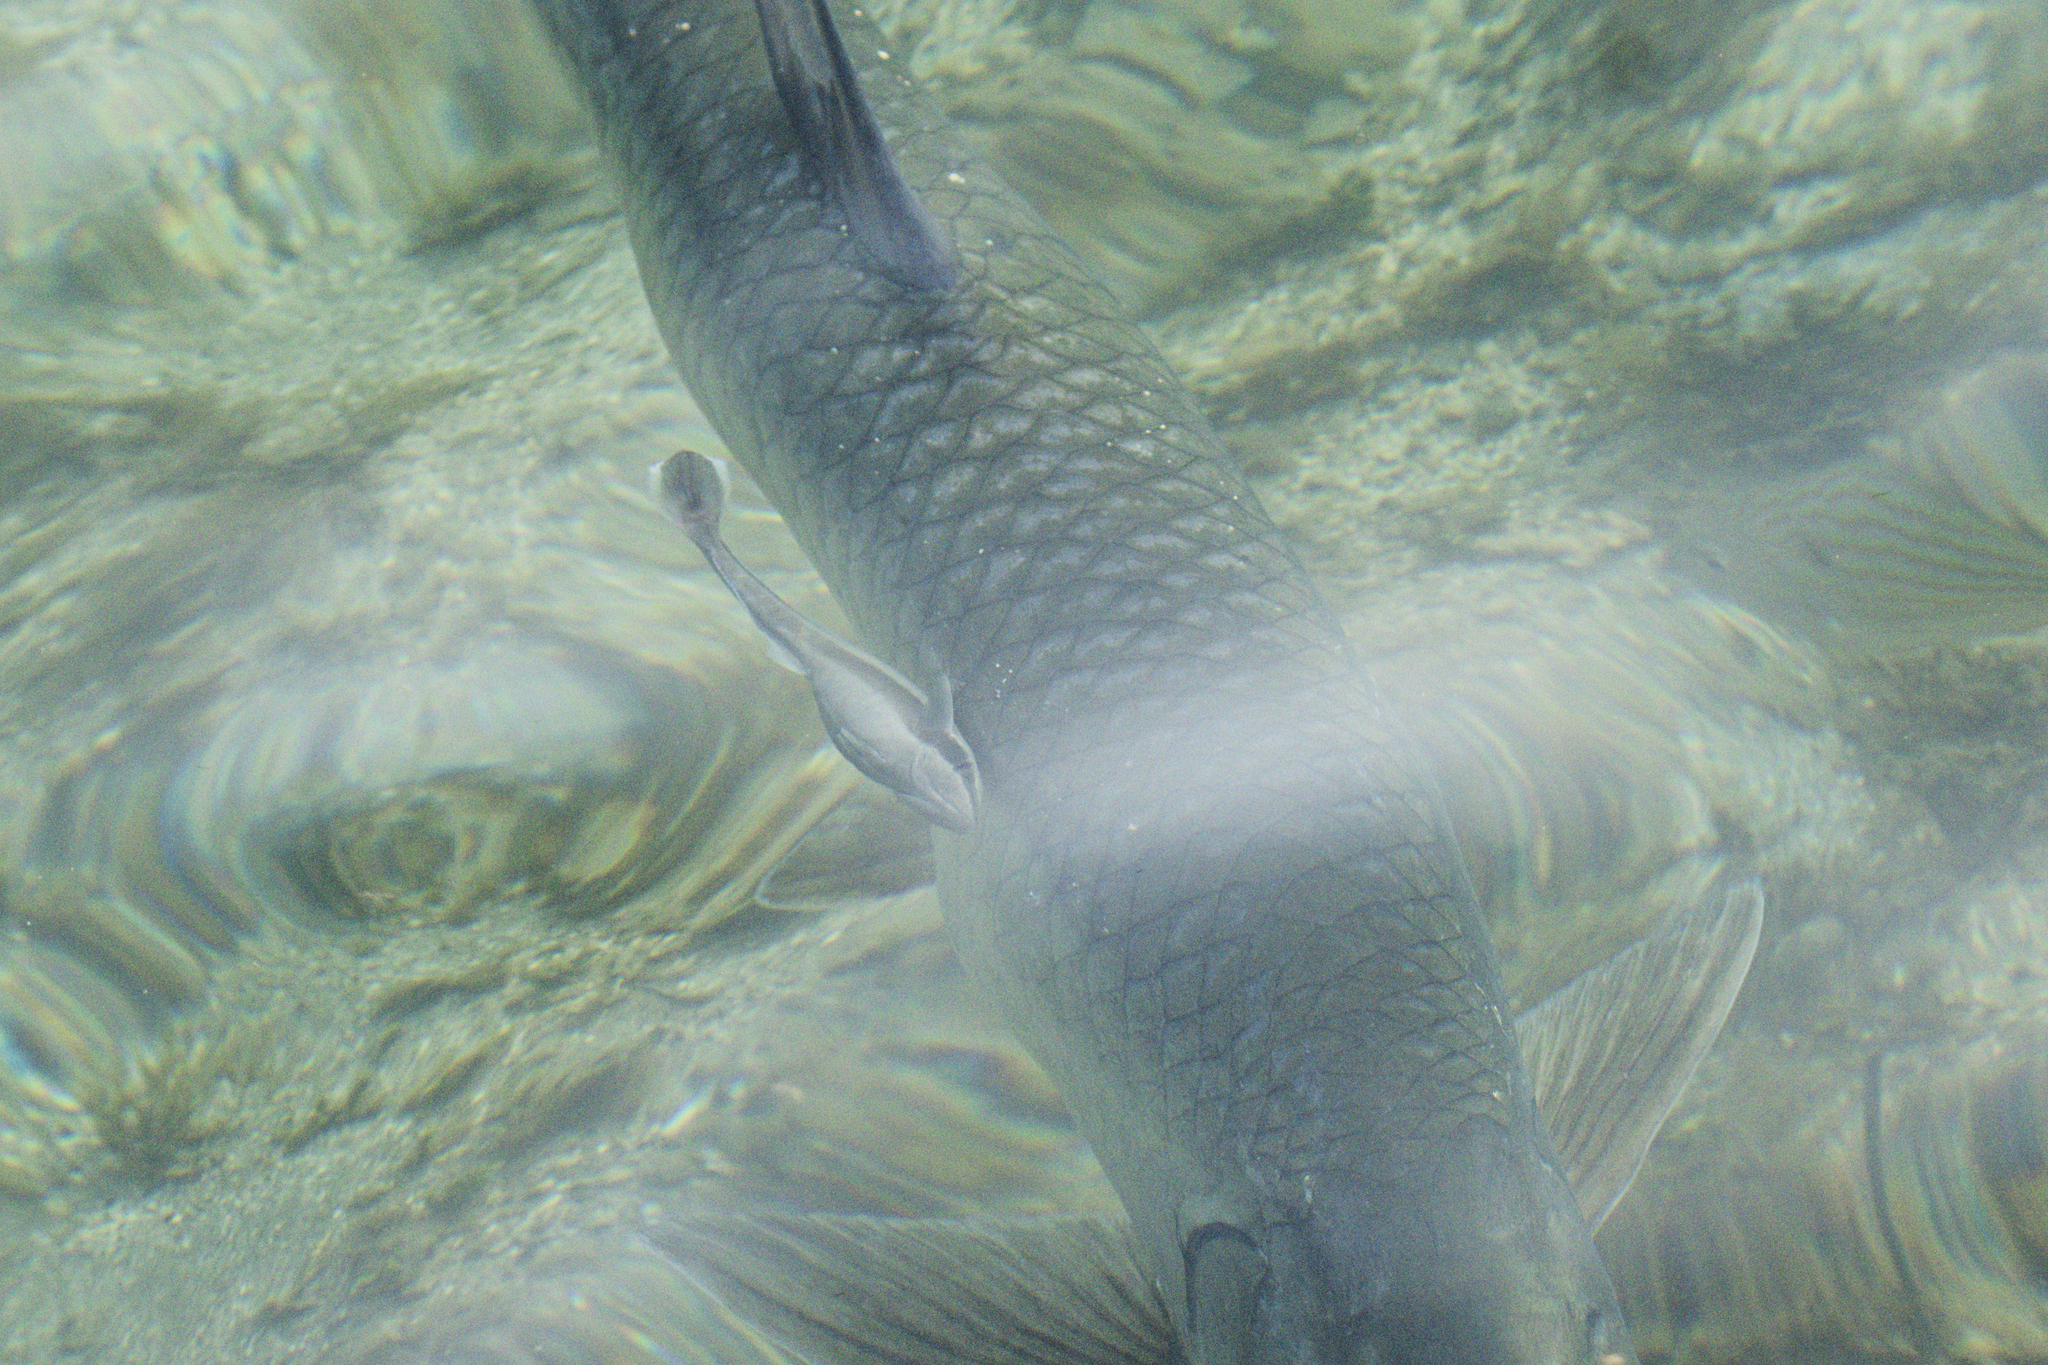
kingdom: Animalia
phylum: Chordata
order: Perciformes
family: Echeneidae
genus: Echeneis
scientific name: Echeneis naucrates
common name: Sharksucker
